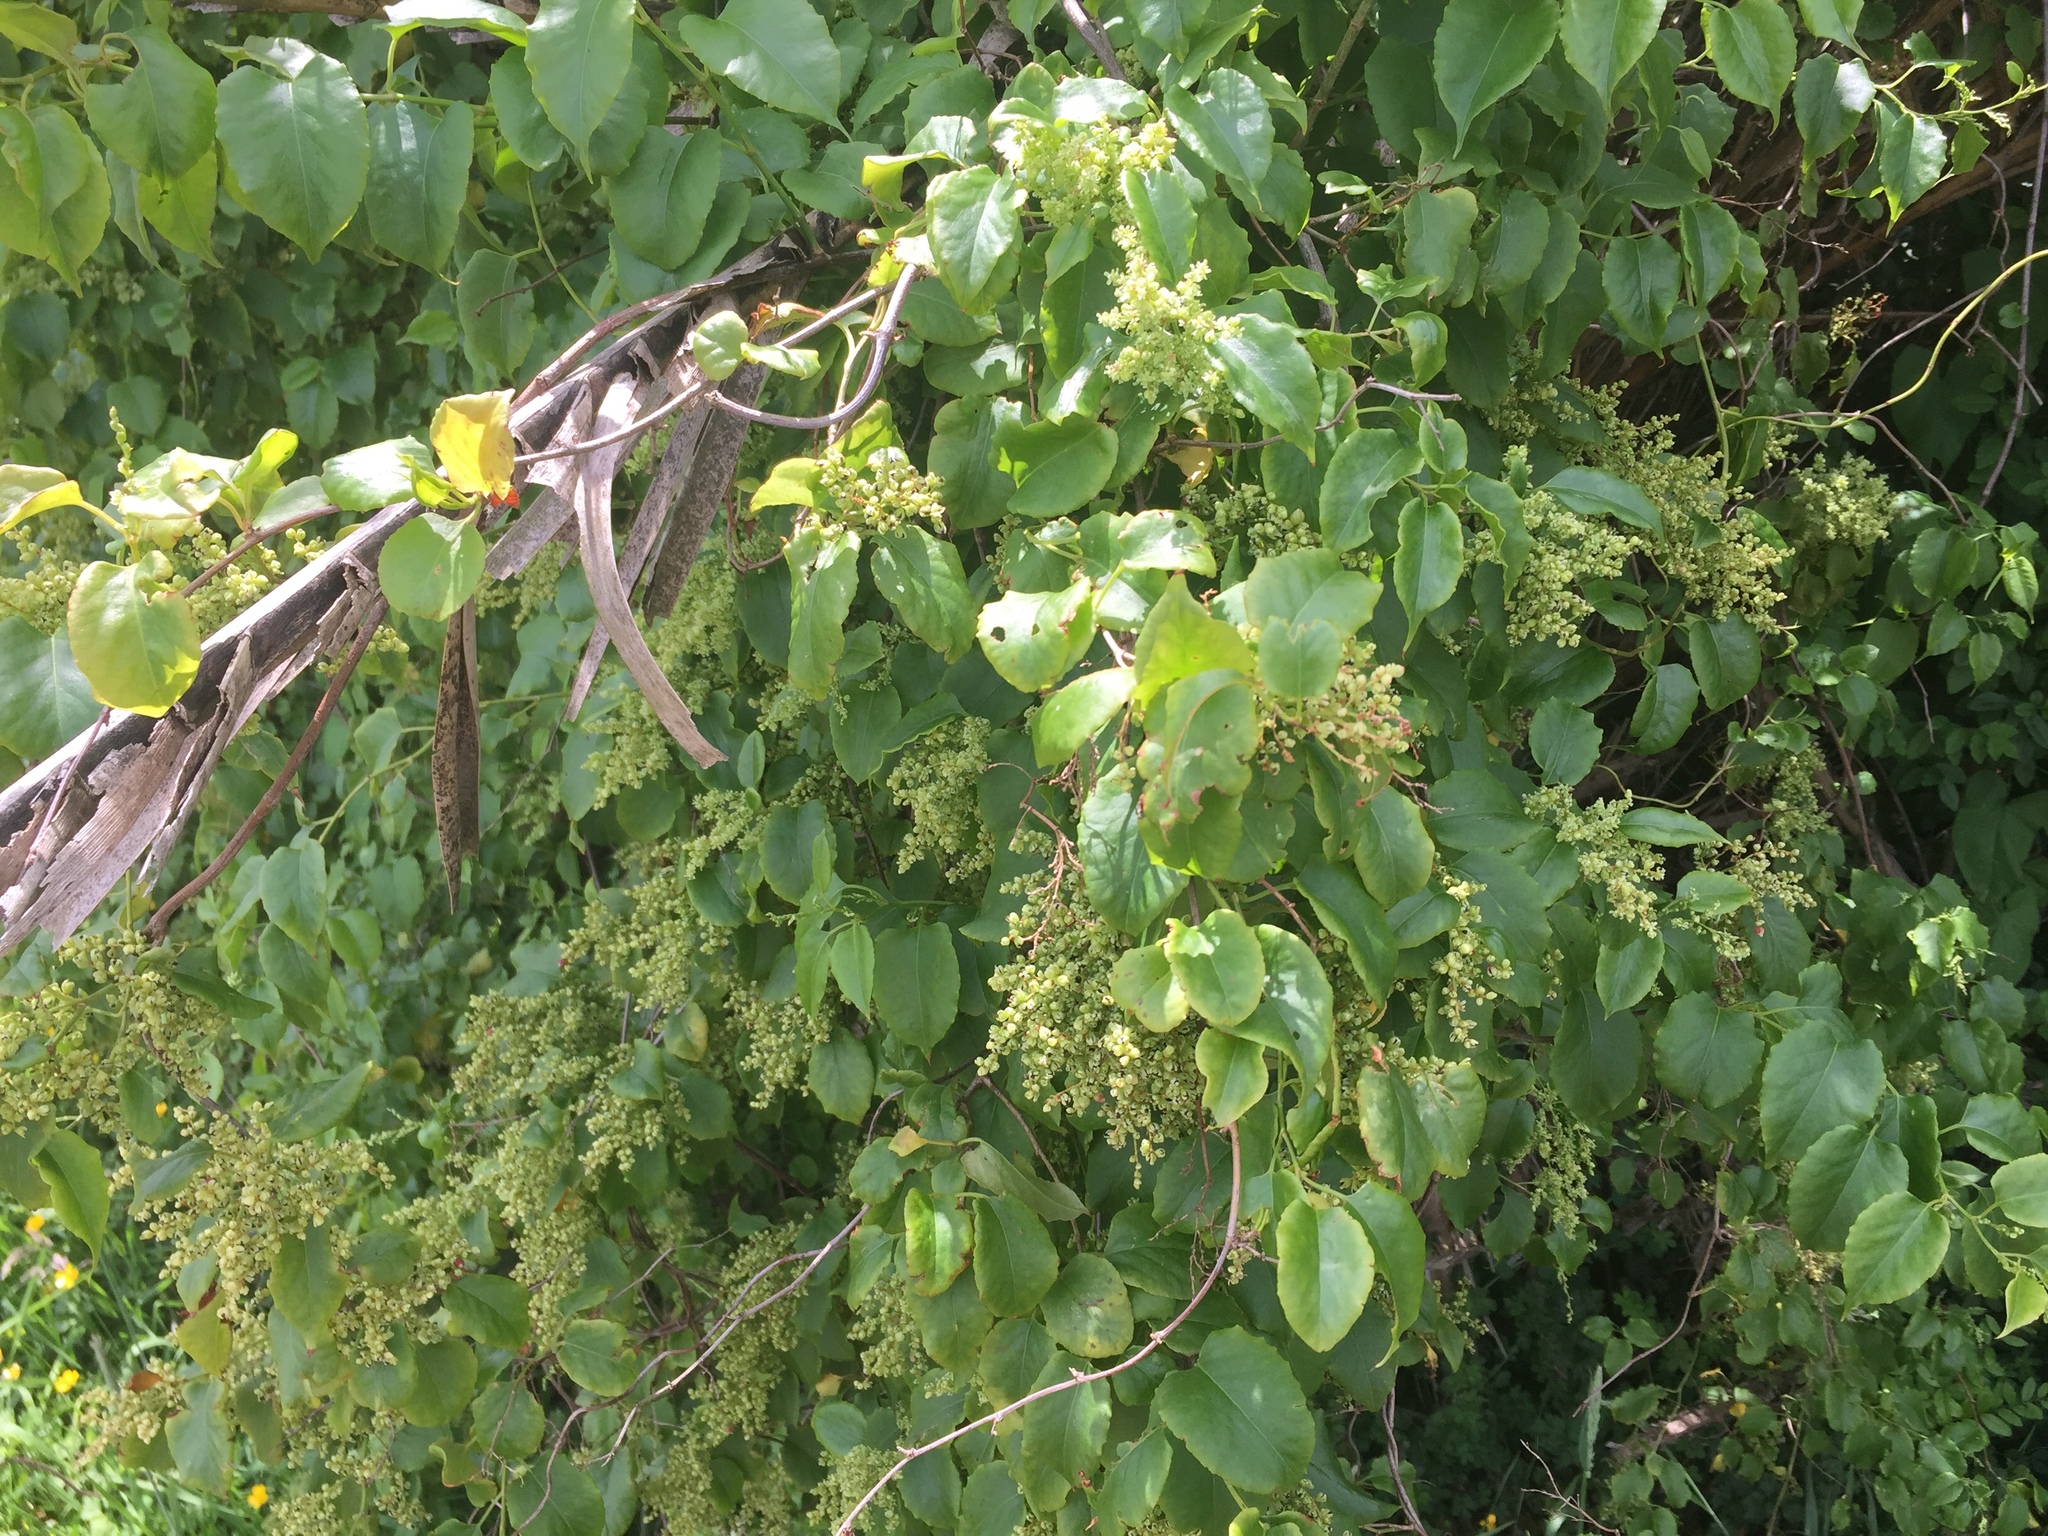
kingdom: Plantae
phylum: Tracheophyta
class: Magnoliopsida
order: Caryophyllales
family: Polygonaceae
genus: Muehlenbeckia
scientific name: Muehlenbeckia australis
